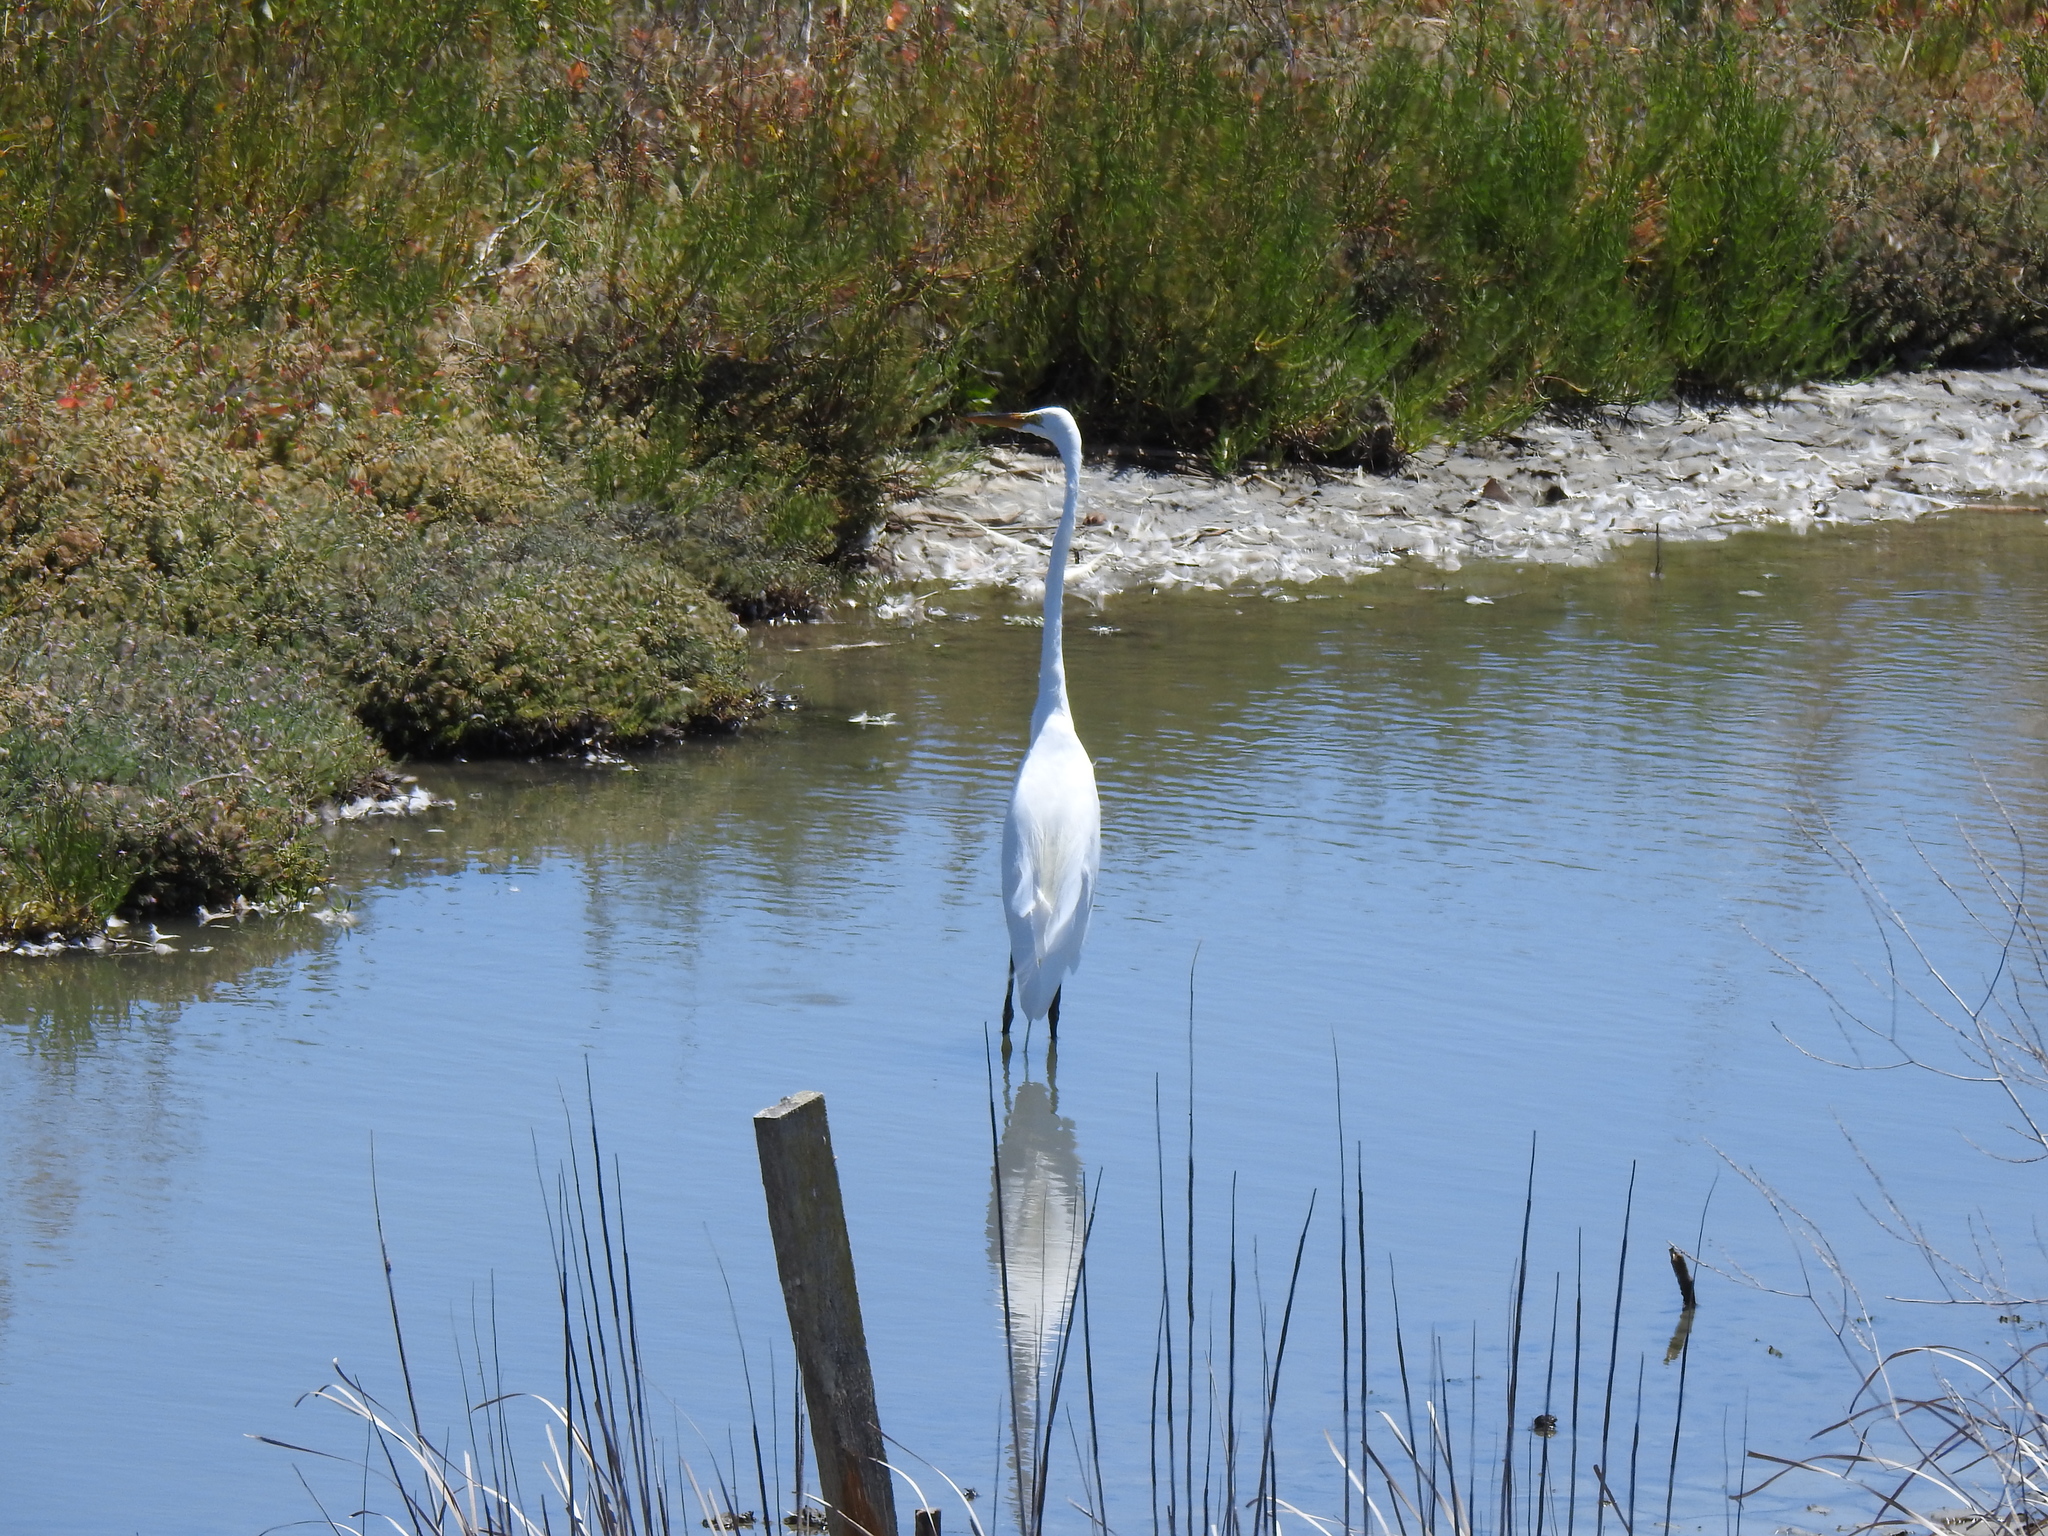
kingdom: Animalia
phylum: Chordata
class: Aves
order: Pelecaniformes
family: Ardeidae
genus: Ardea
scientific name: Ardea alba
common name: Great egret
